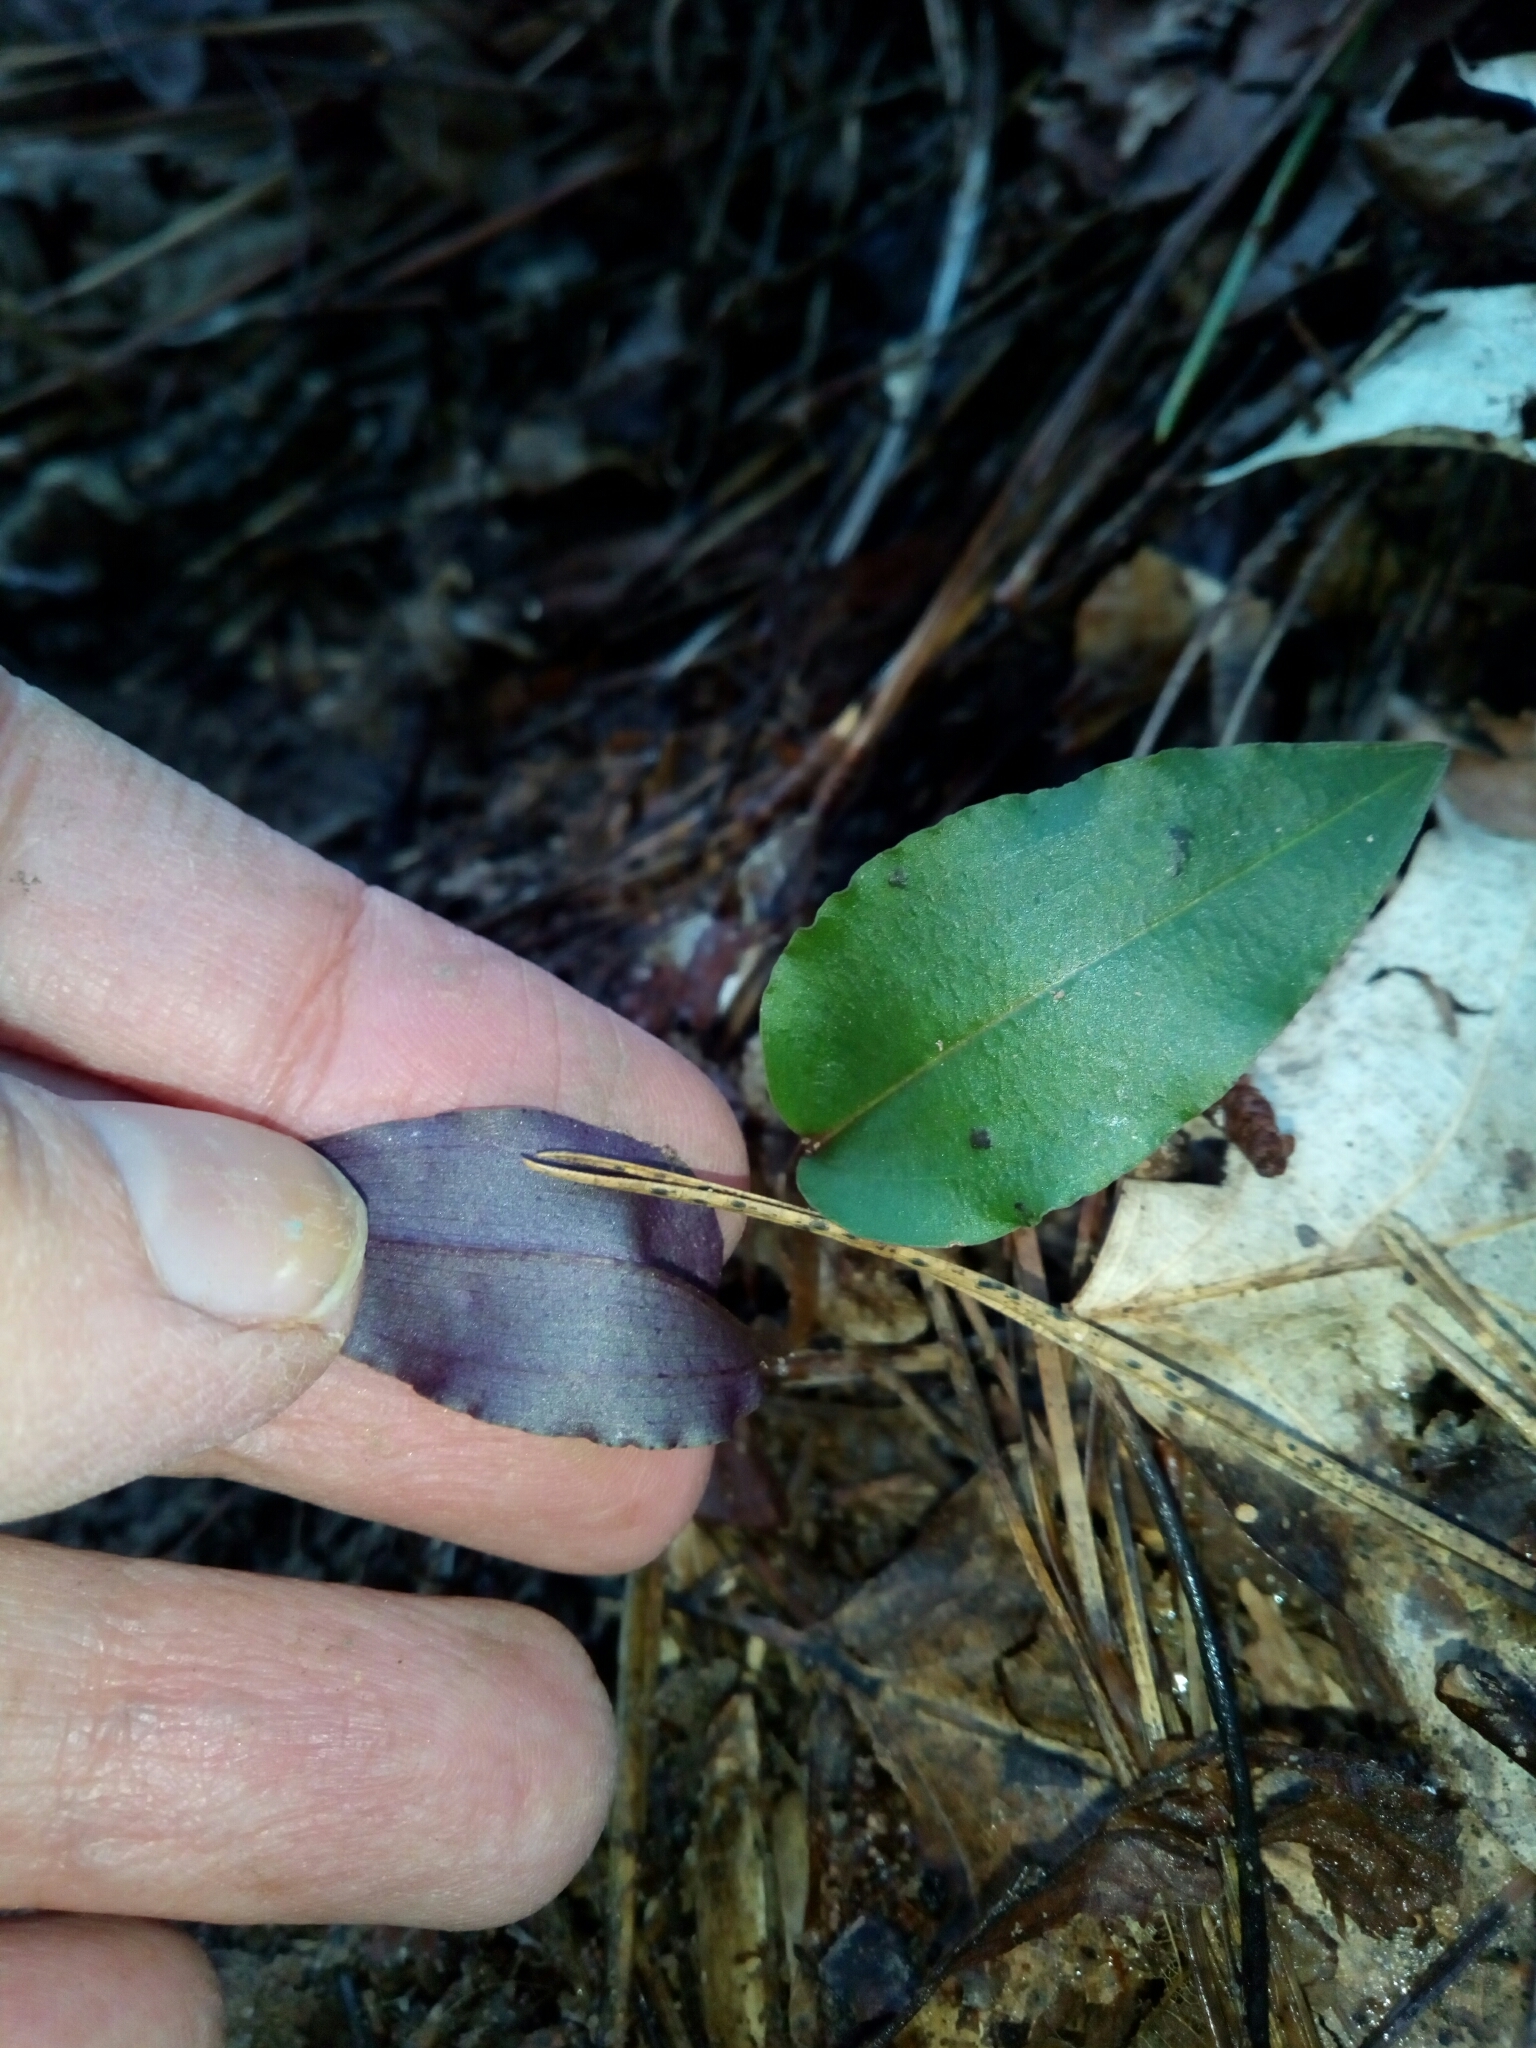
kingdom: Plantae
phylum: Tracheophyta
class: Liliopsida
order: Asparagales
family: Orchidaceae
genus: Tipularia
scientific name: Tipularia discolor
